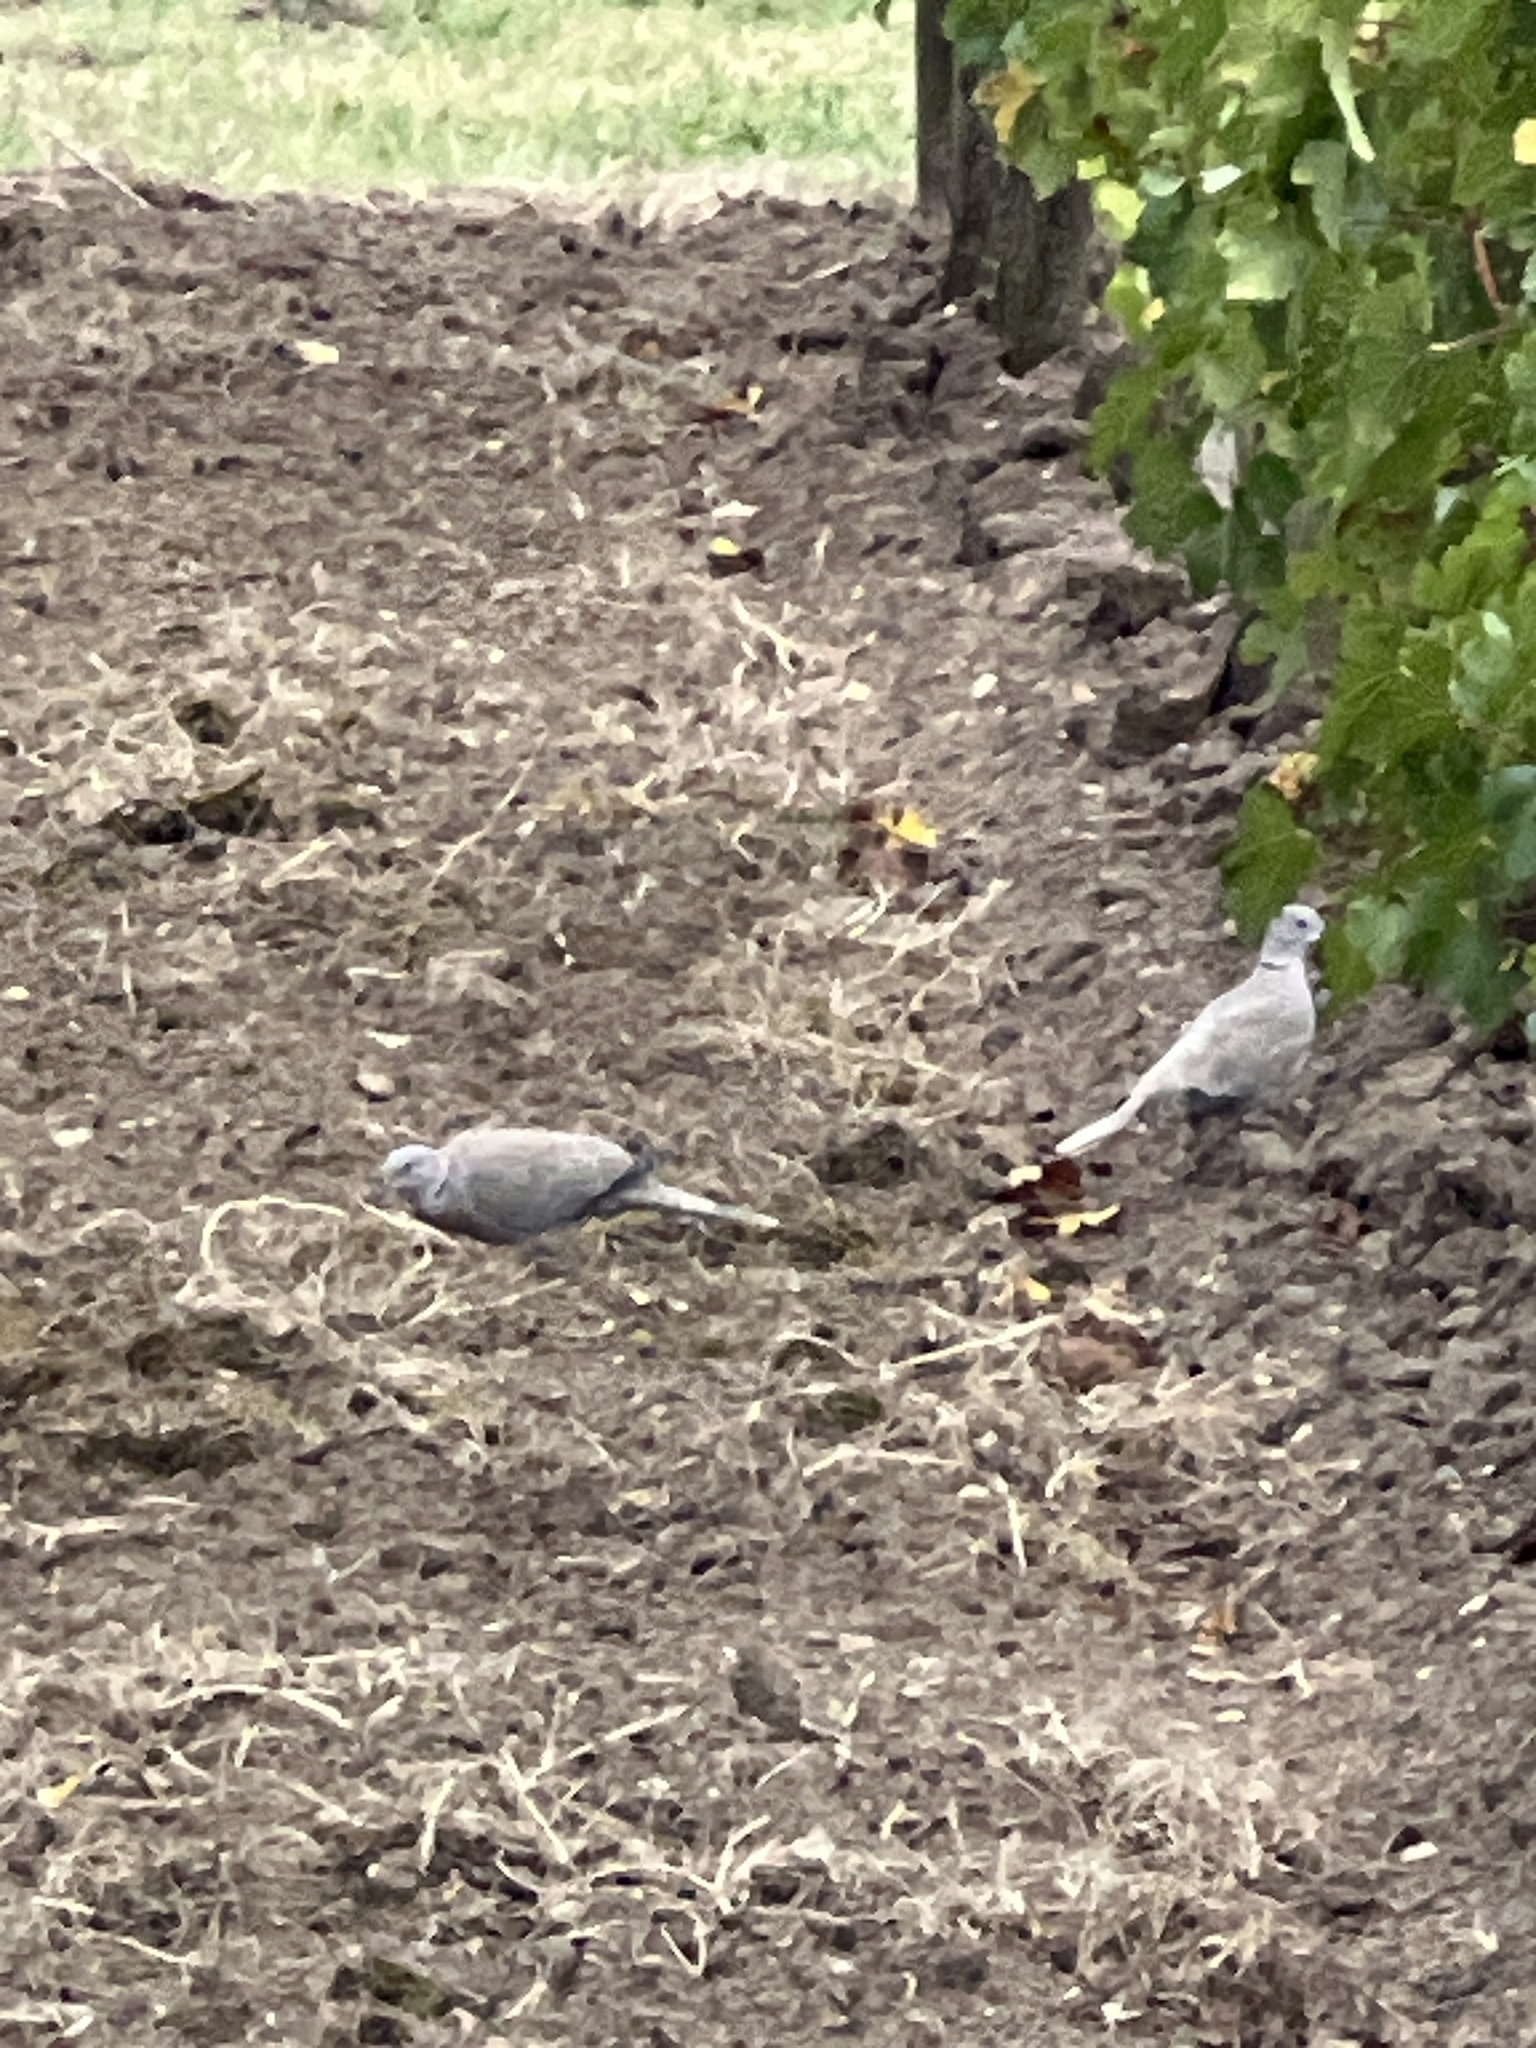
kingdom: Animalia
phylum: Chordata
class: Aves
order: Columbiformes
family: Columbidae
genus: Streptopelia
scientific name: Streptopelia decaocto
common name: Eurasian collared dove
